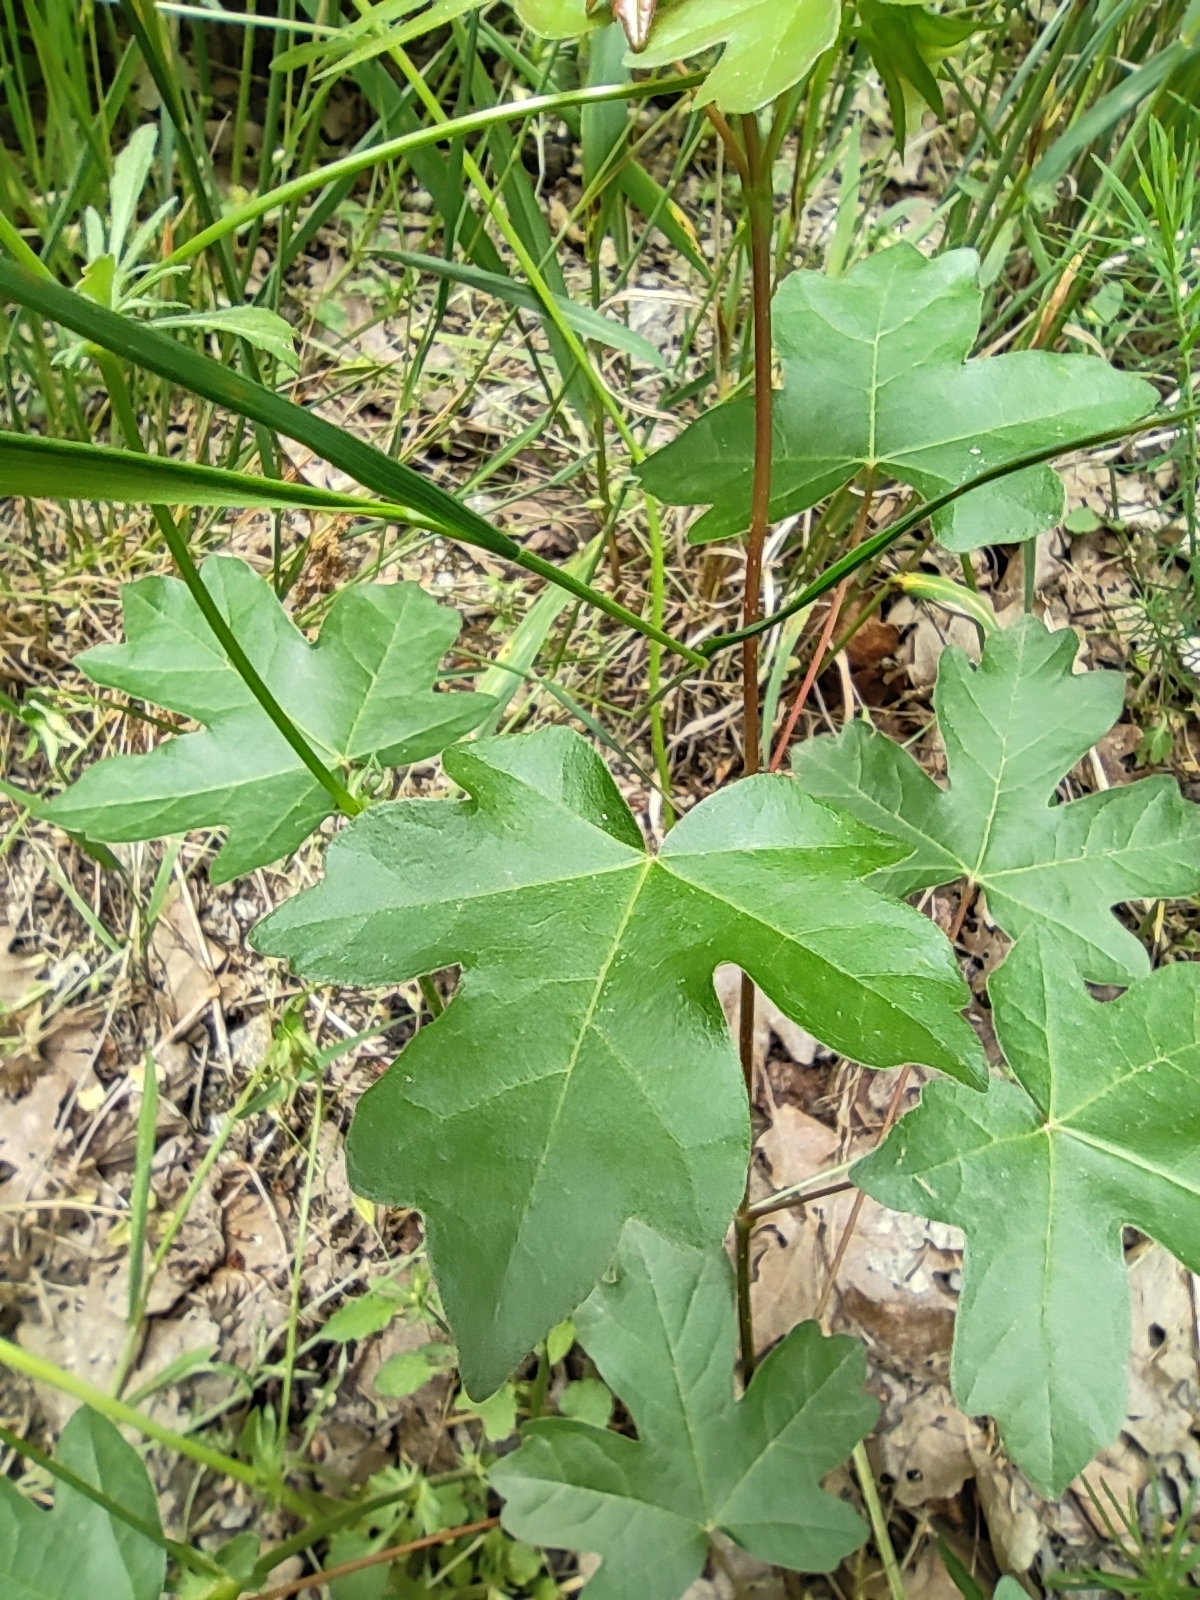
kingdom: Plantae
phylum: Tracheophyta
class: Magnoliopsida
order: Sapindales
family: Sapindaceae
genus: Acer
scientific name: Acer campestre
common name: Field maple
